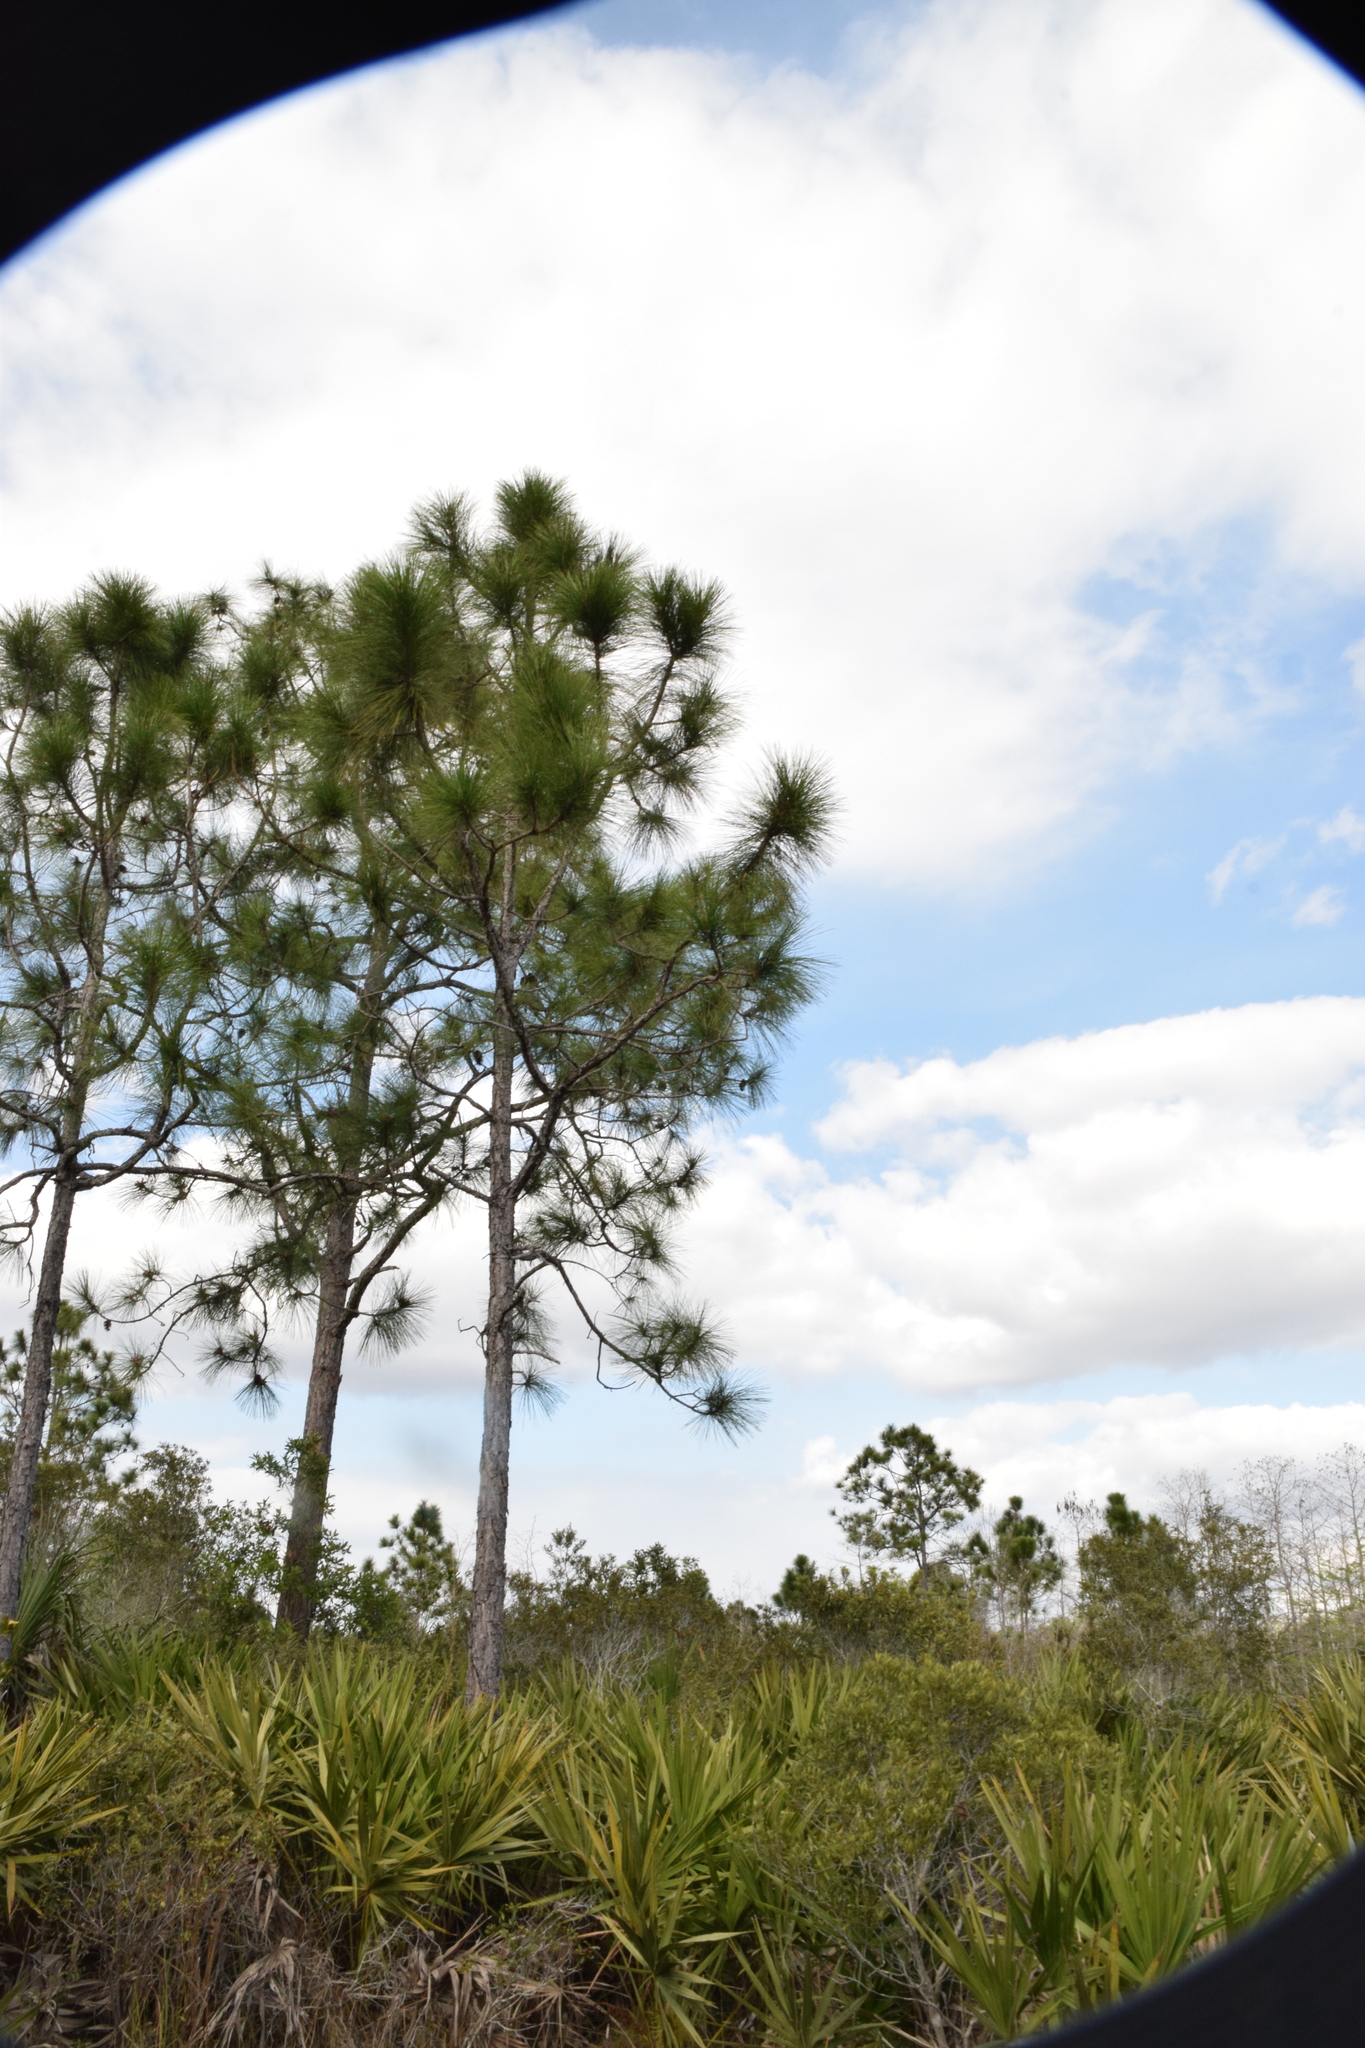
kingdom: Plantae
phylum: Tracheophyta
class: Pinopsida
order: Pinales
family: Pinaceae
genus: Pinus
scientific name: Pinus elliottii
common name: Slash pine
